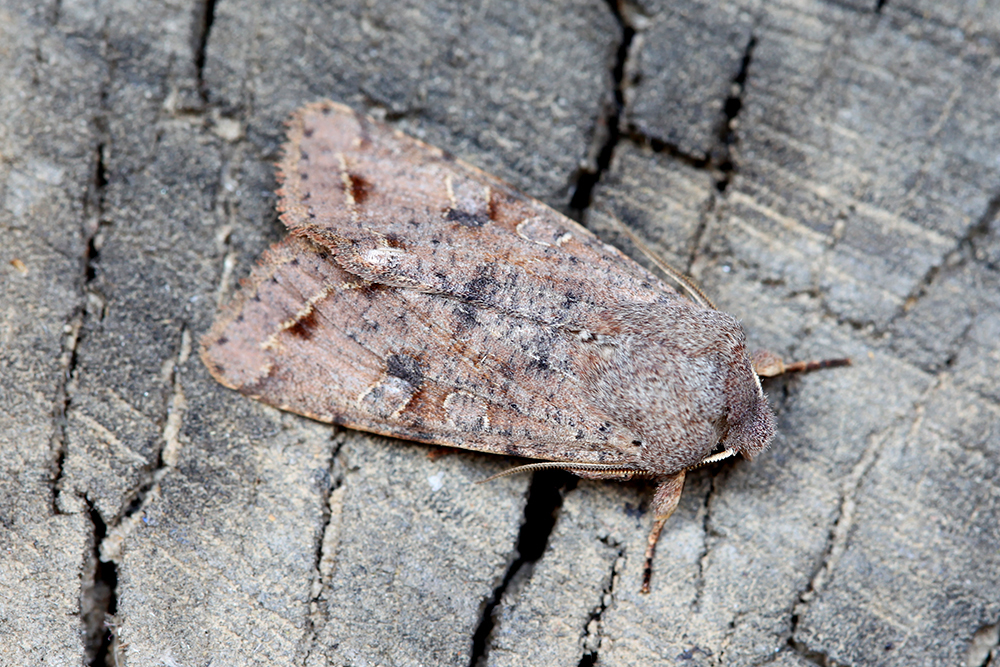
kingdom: Animalia
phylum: Arthropoda
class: Insecta
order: Lepidoptera
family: Noctuidae
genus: Orthosia
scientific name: Orthosia incerta
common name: Clouded drab
